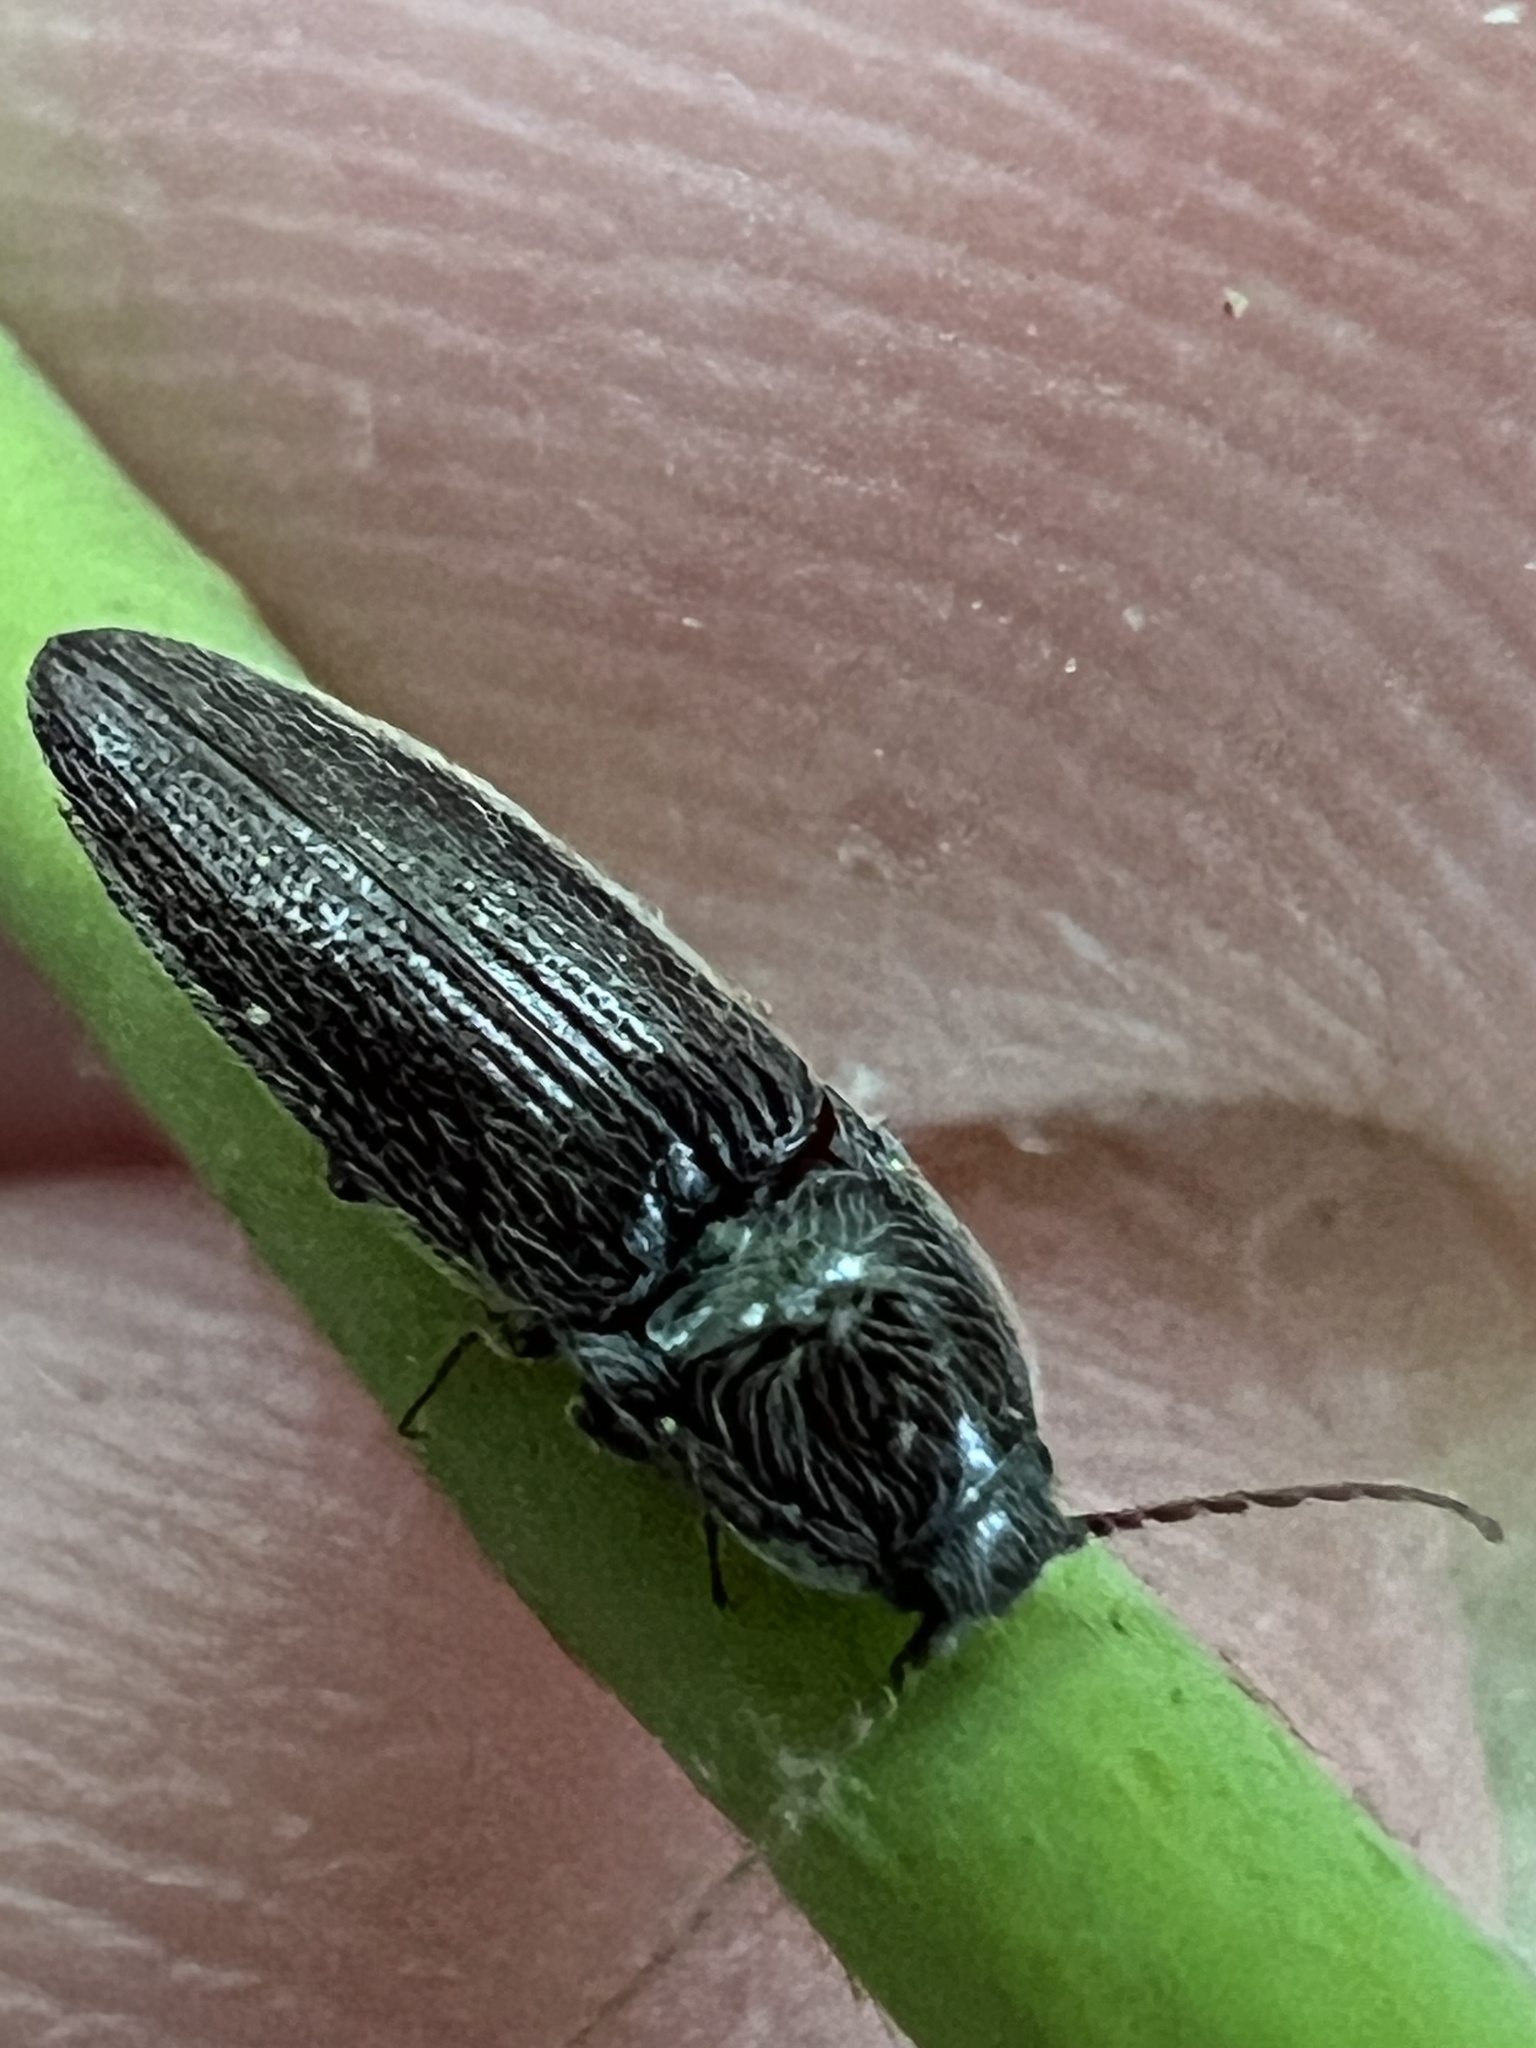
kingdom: Animalia
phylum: Arthropoda
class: Insecta
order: Coleoptera
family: Elateridae
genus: Melanotus
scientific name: Melanotus americanus
